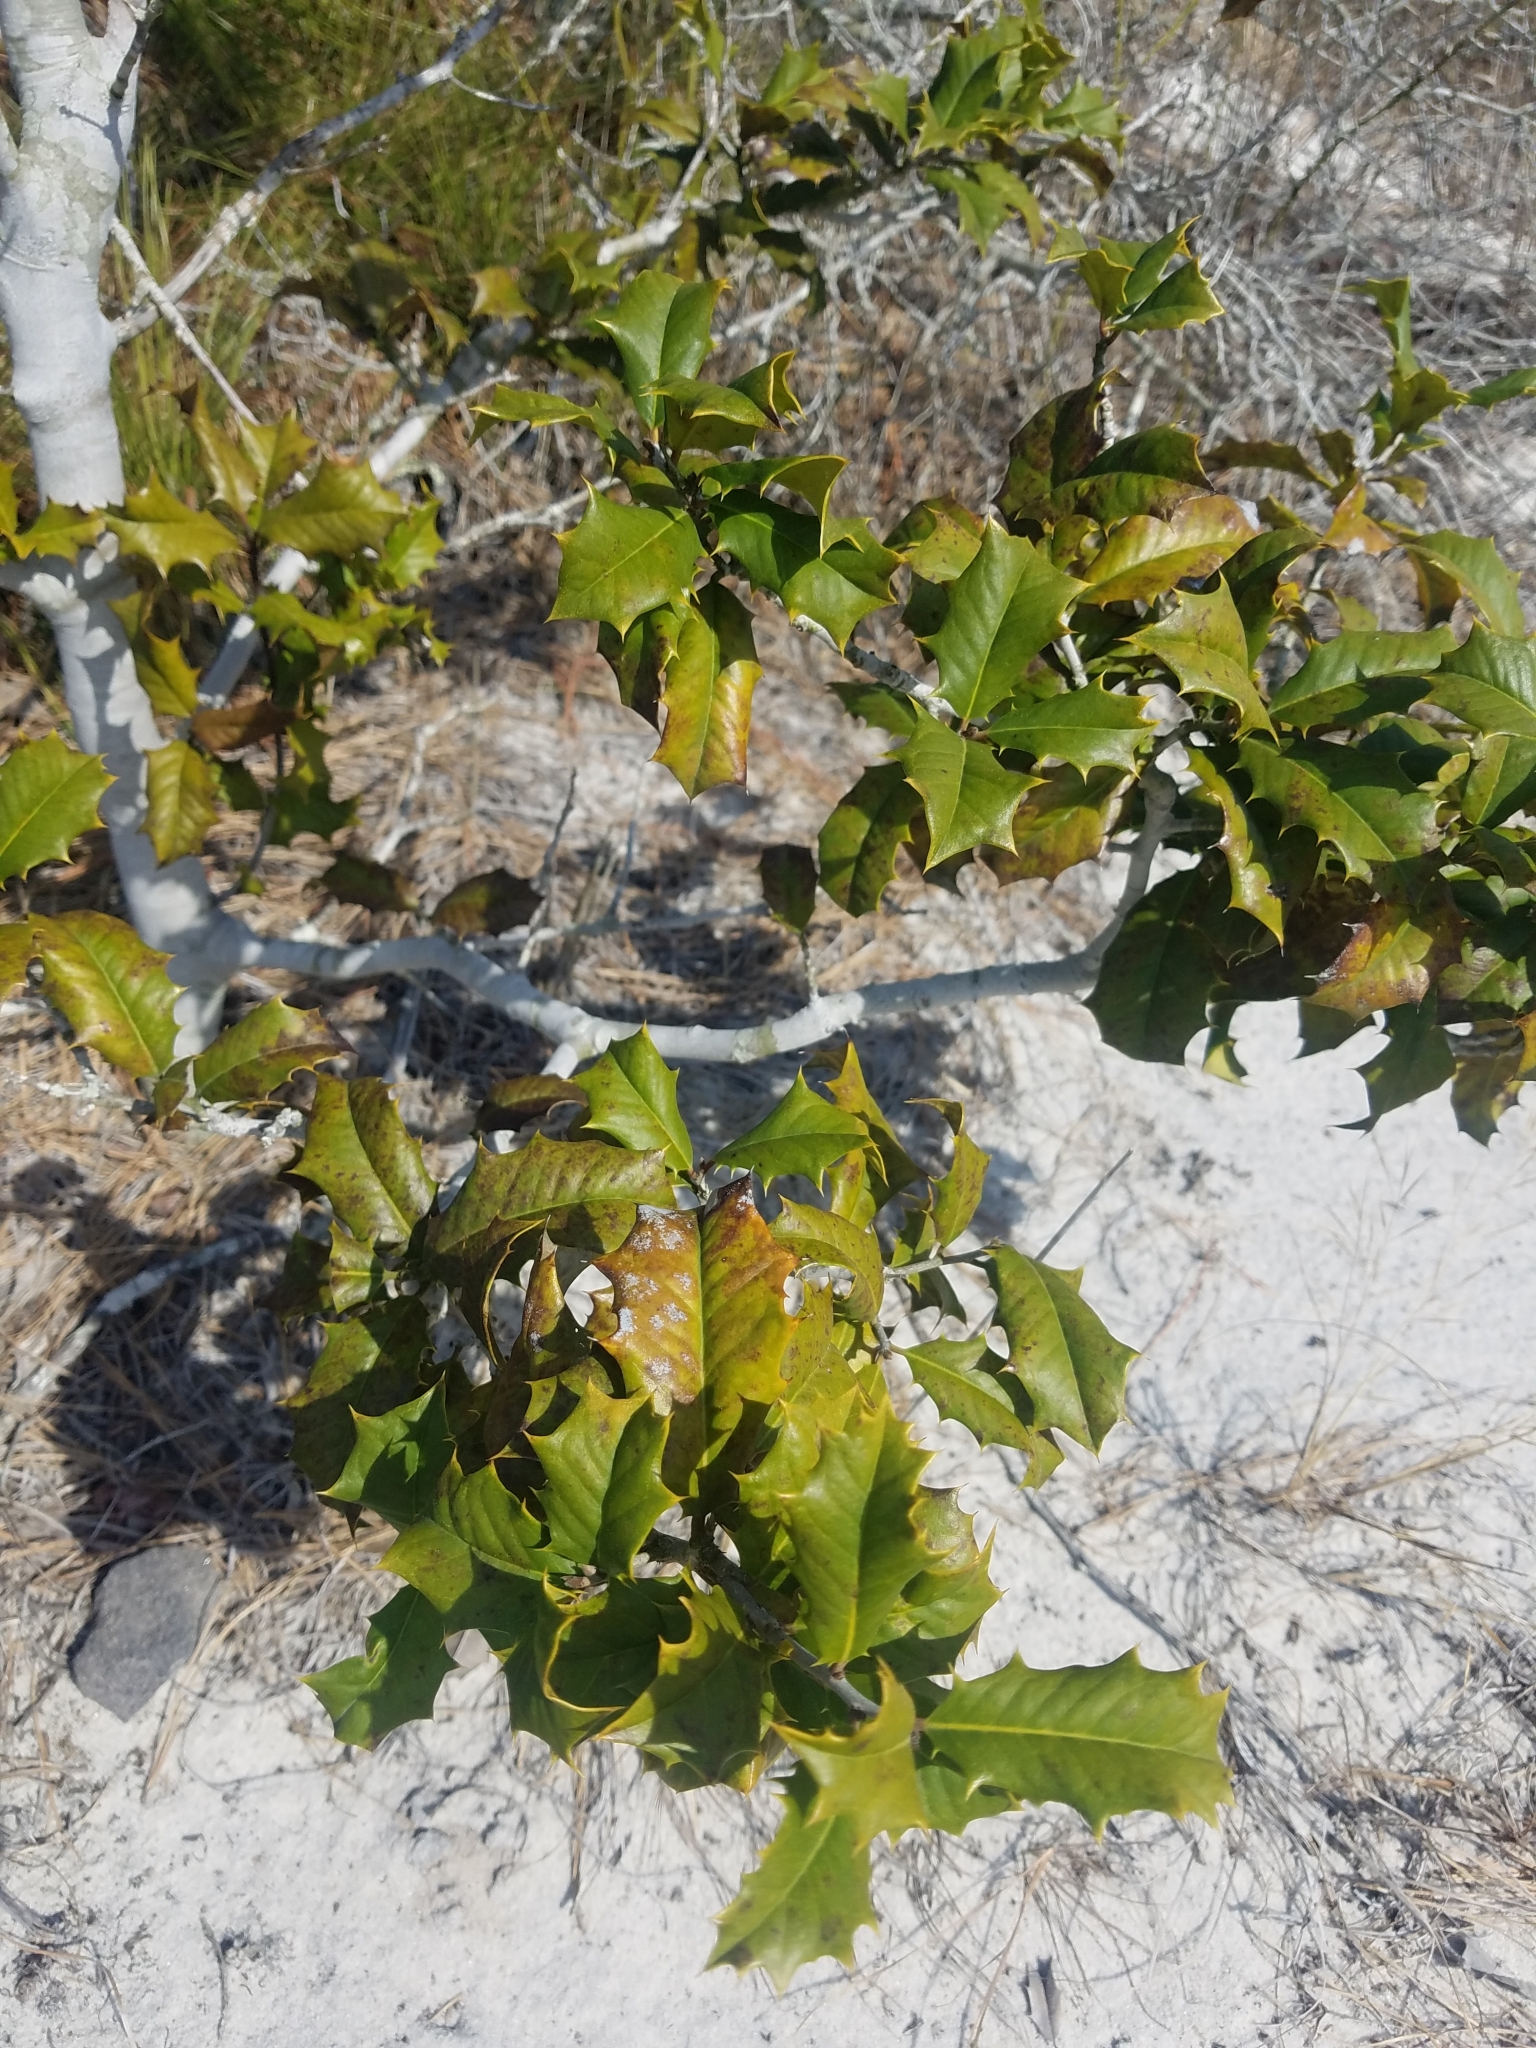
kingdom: Plantae
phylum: Tracheophyta
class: Magnoliopsida
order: Aquifoliales
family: Aquifoliaceae
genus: Ilex
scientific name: Ilex opaca
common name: American holly
